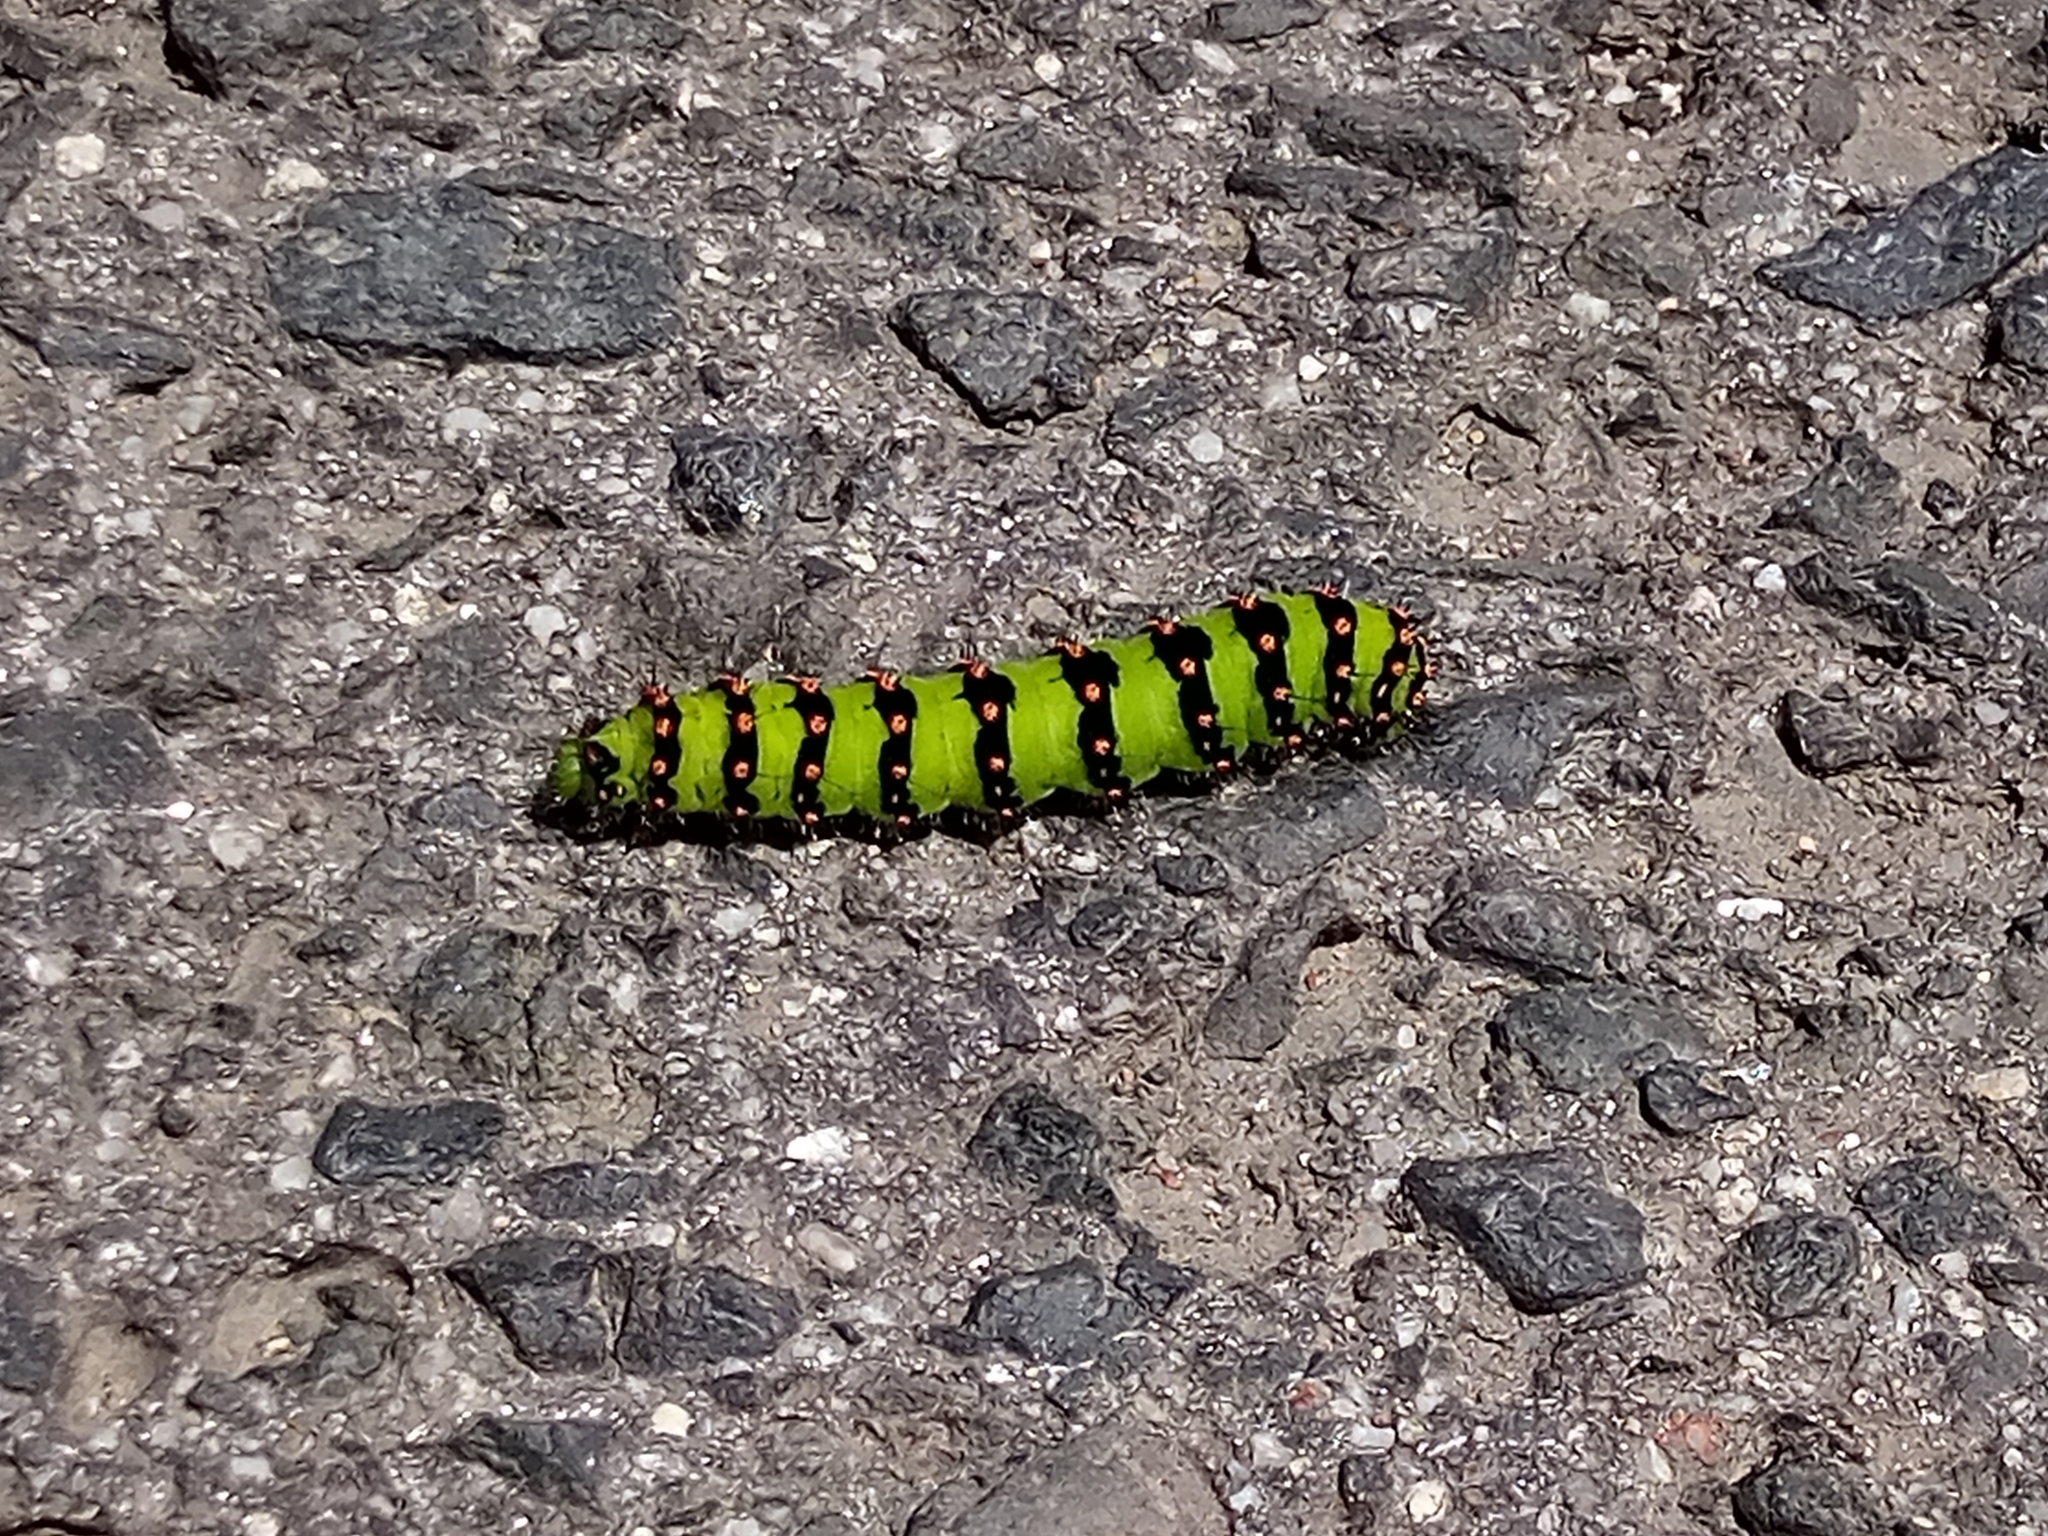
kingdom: Animalia
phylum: Arthropoda
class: Insecta
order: Lepidoptera
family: Saturniidae
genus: Saturnia
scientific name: Saturnia pavonia
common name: Emperor moth
